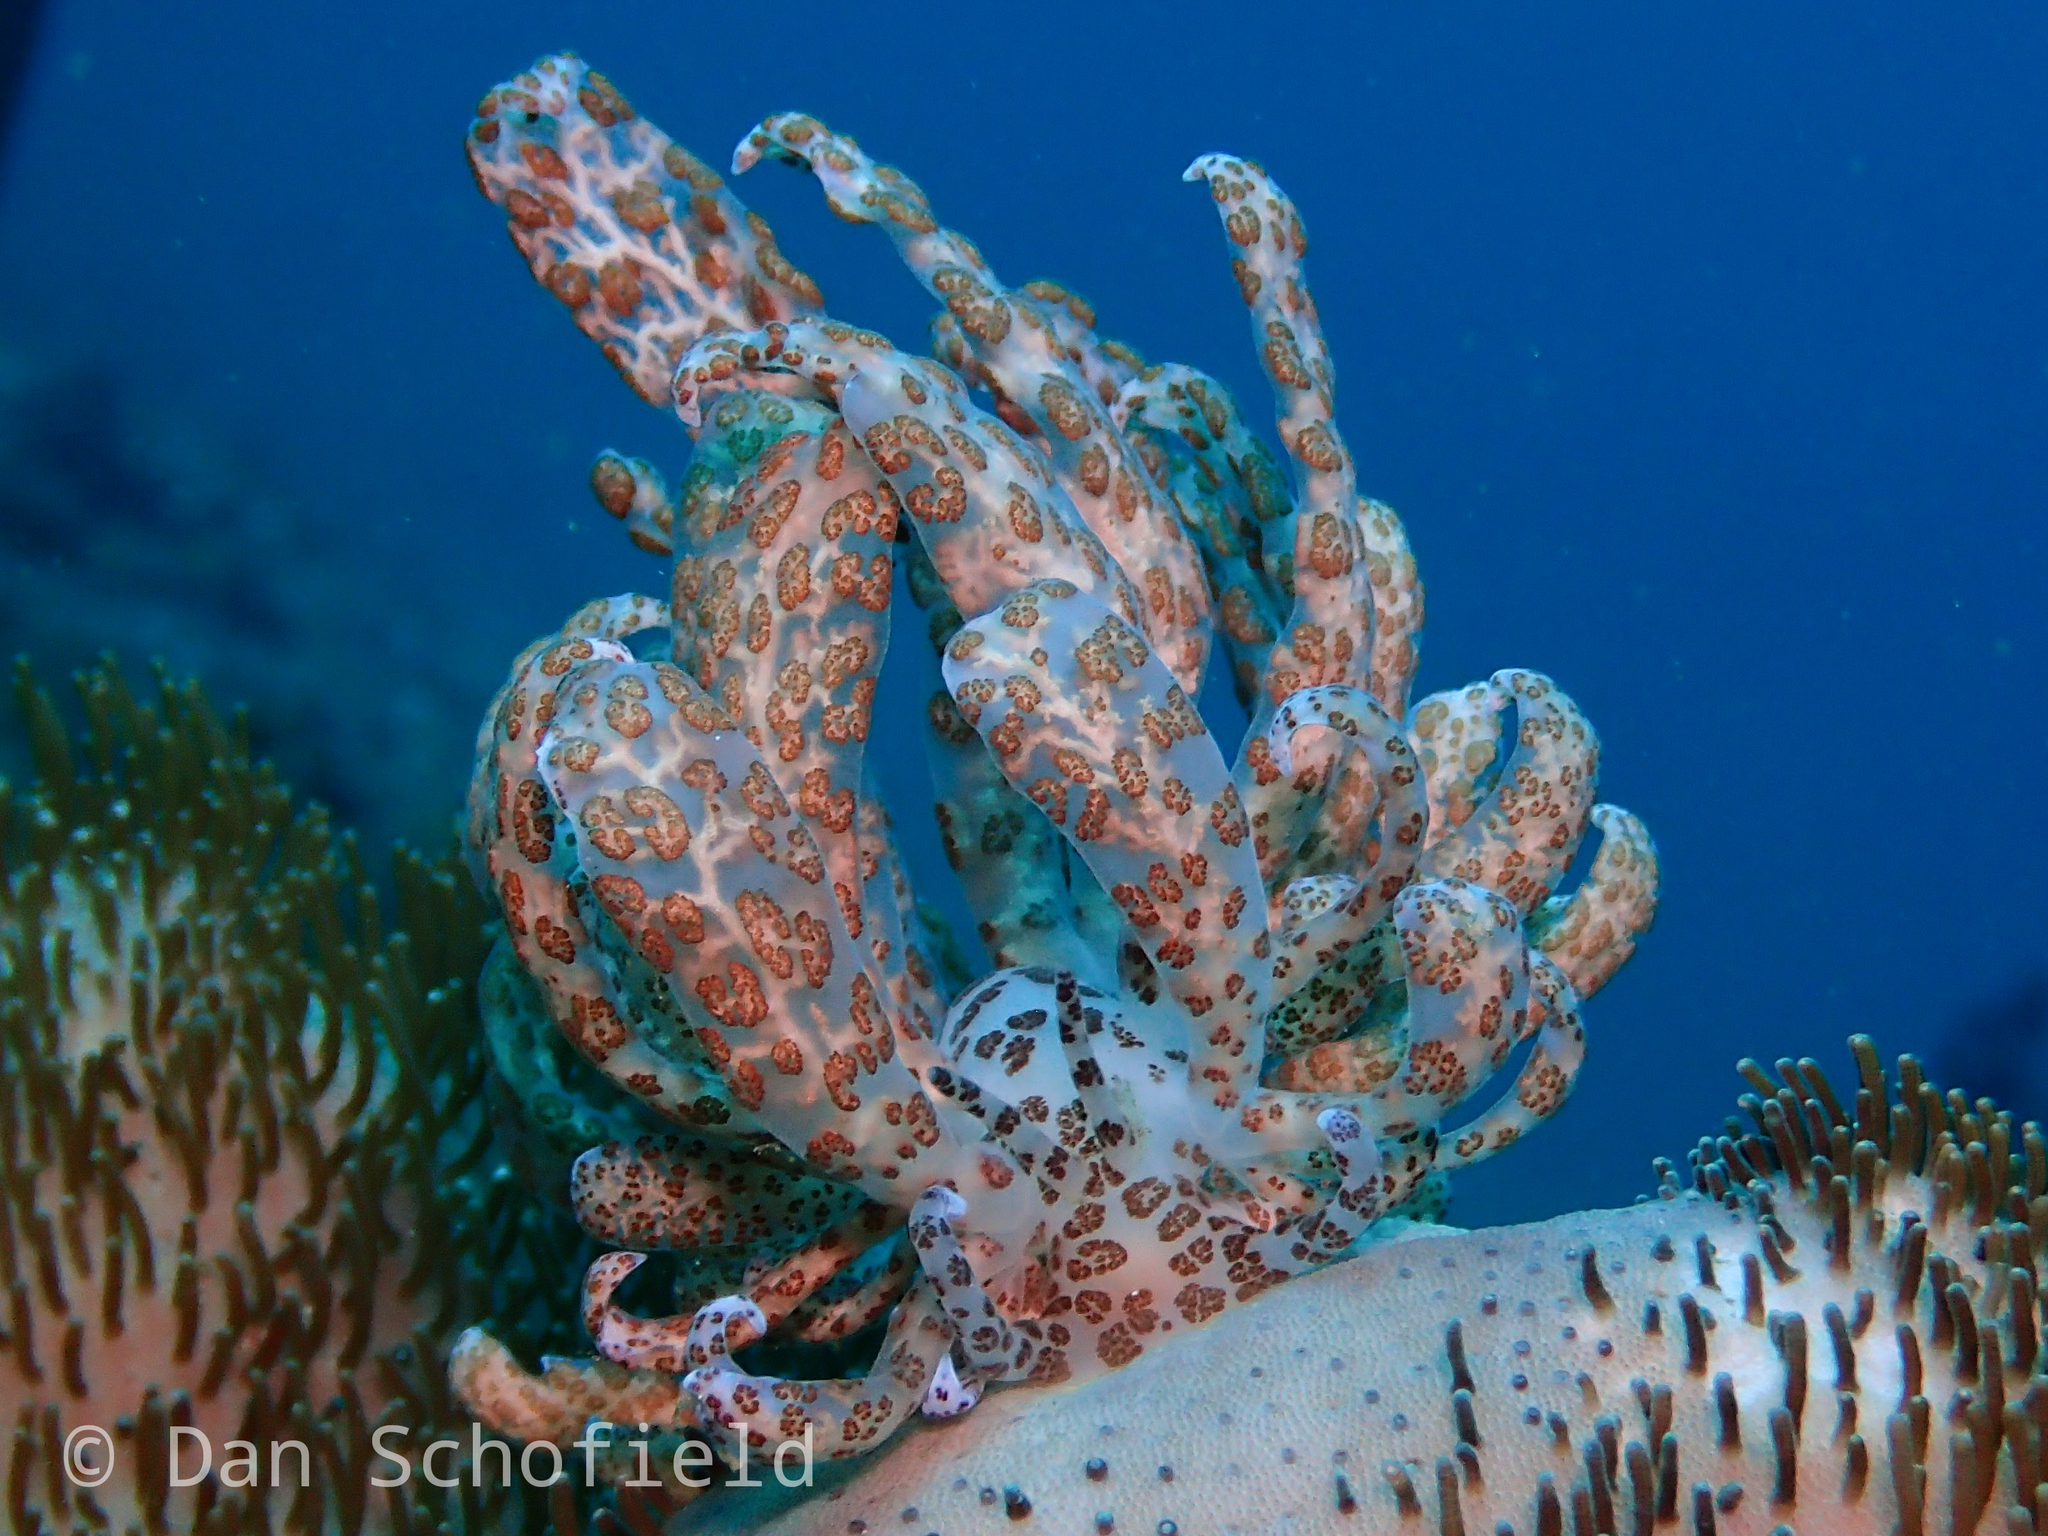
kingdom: Animalia
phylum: Mollusca
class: Gastropoda
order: Nudibranchia
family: Myrrhinidae
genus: Phyllodesmium
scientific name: Phyllodesmium longicirrum
